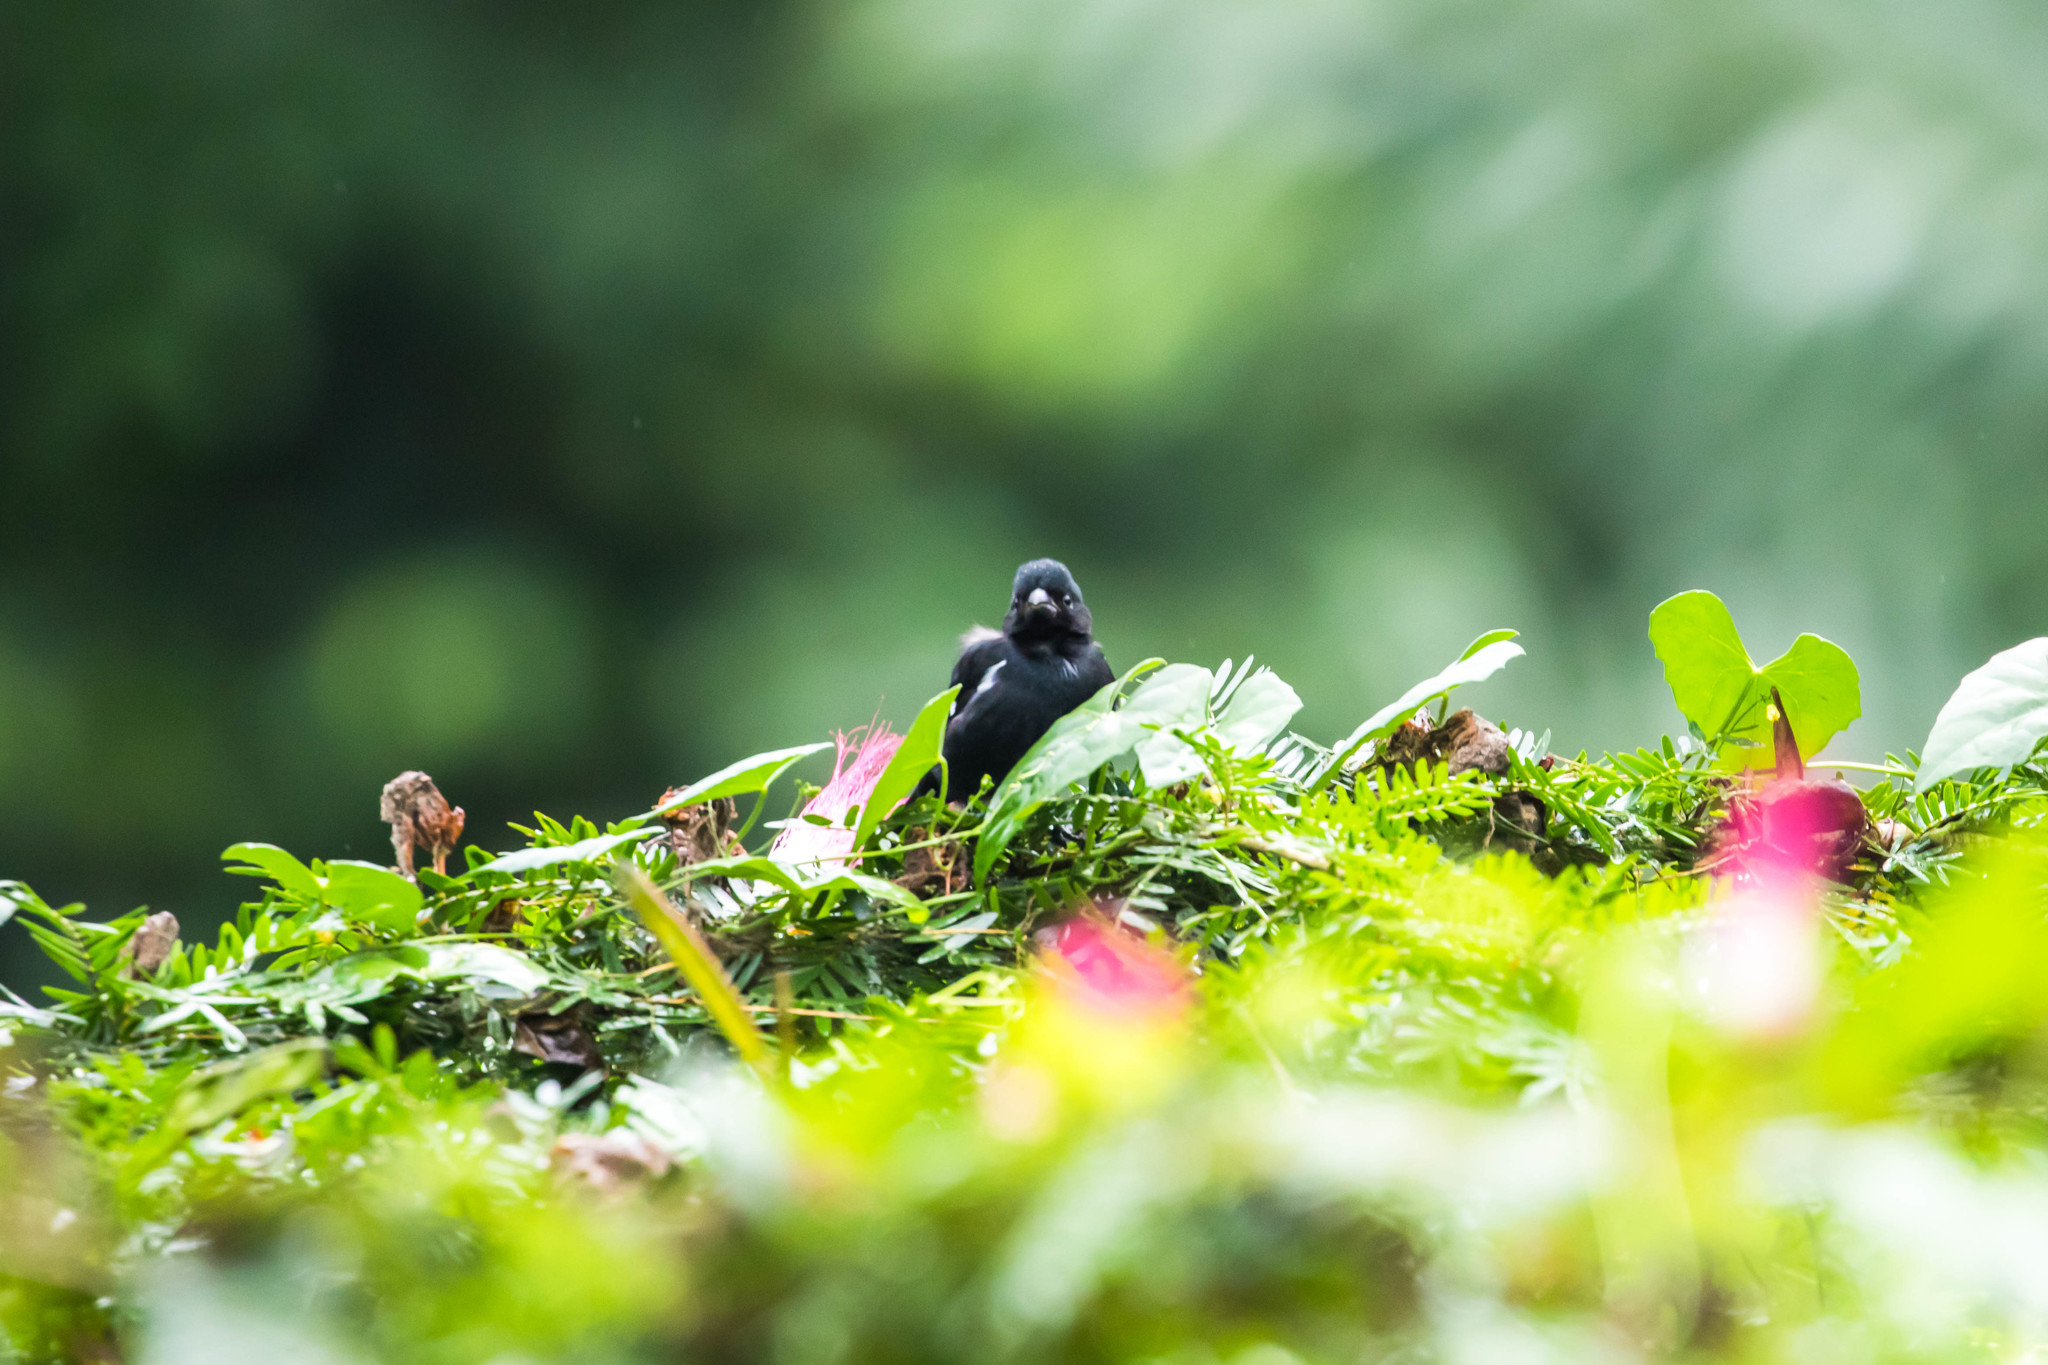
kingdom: Animalia
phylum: Chordata
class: Aves
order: Passeriformes
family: Thraupidae
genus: Sporophila
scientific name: Sporophila corvina
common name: Variable seedeater
